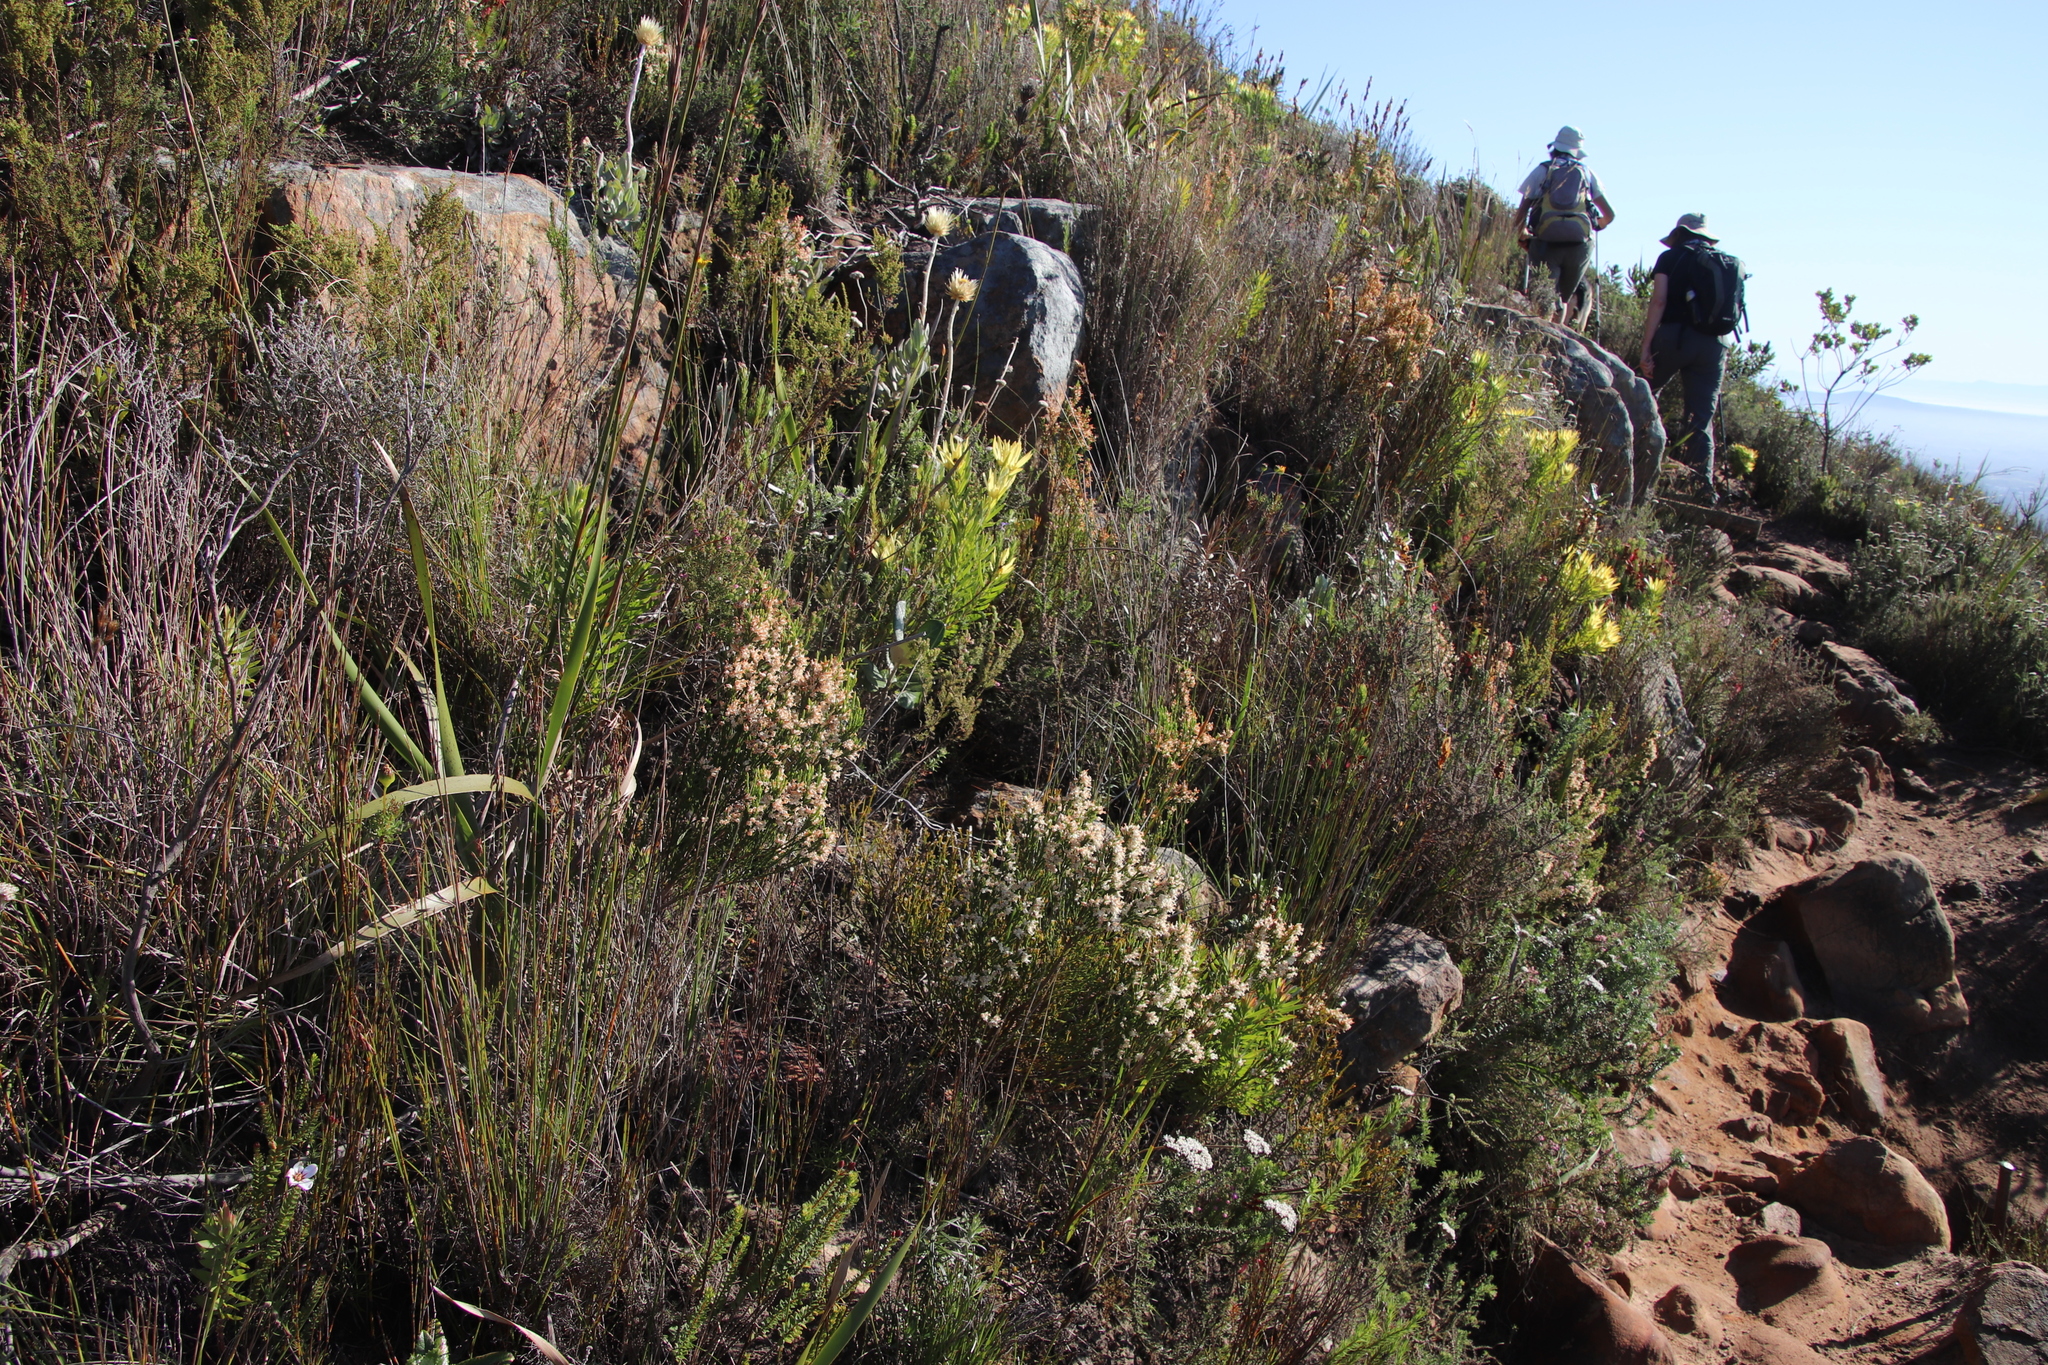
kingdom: Plantae
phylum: Tracheophyta
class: Magnoliopsida
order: Ericales
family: Ericaceae
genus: Erica
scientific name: Erica lutea
